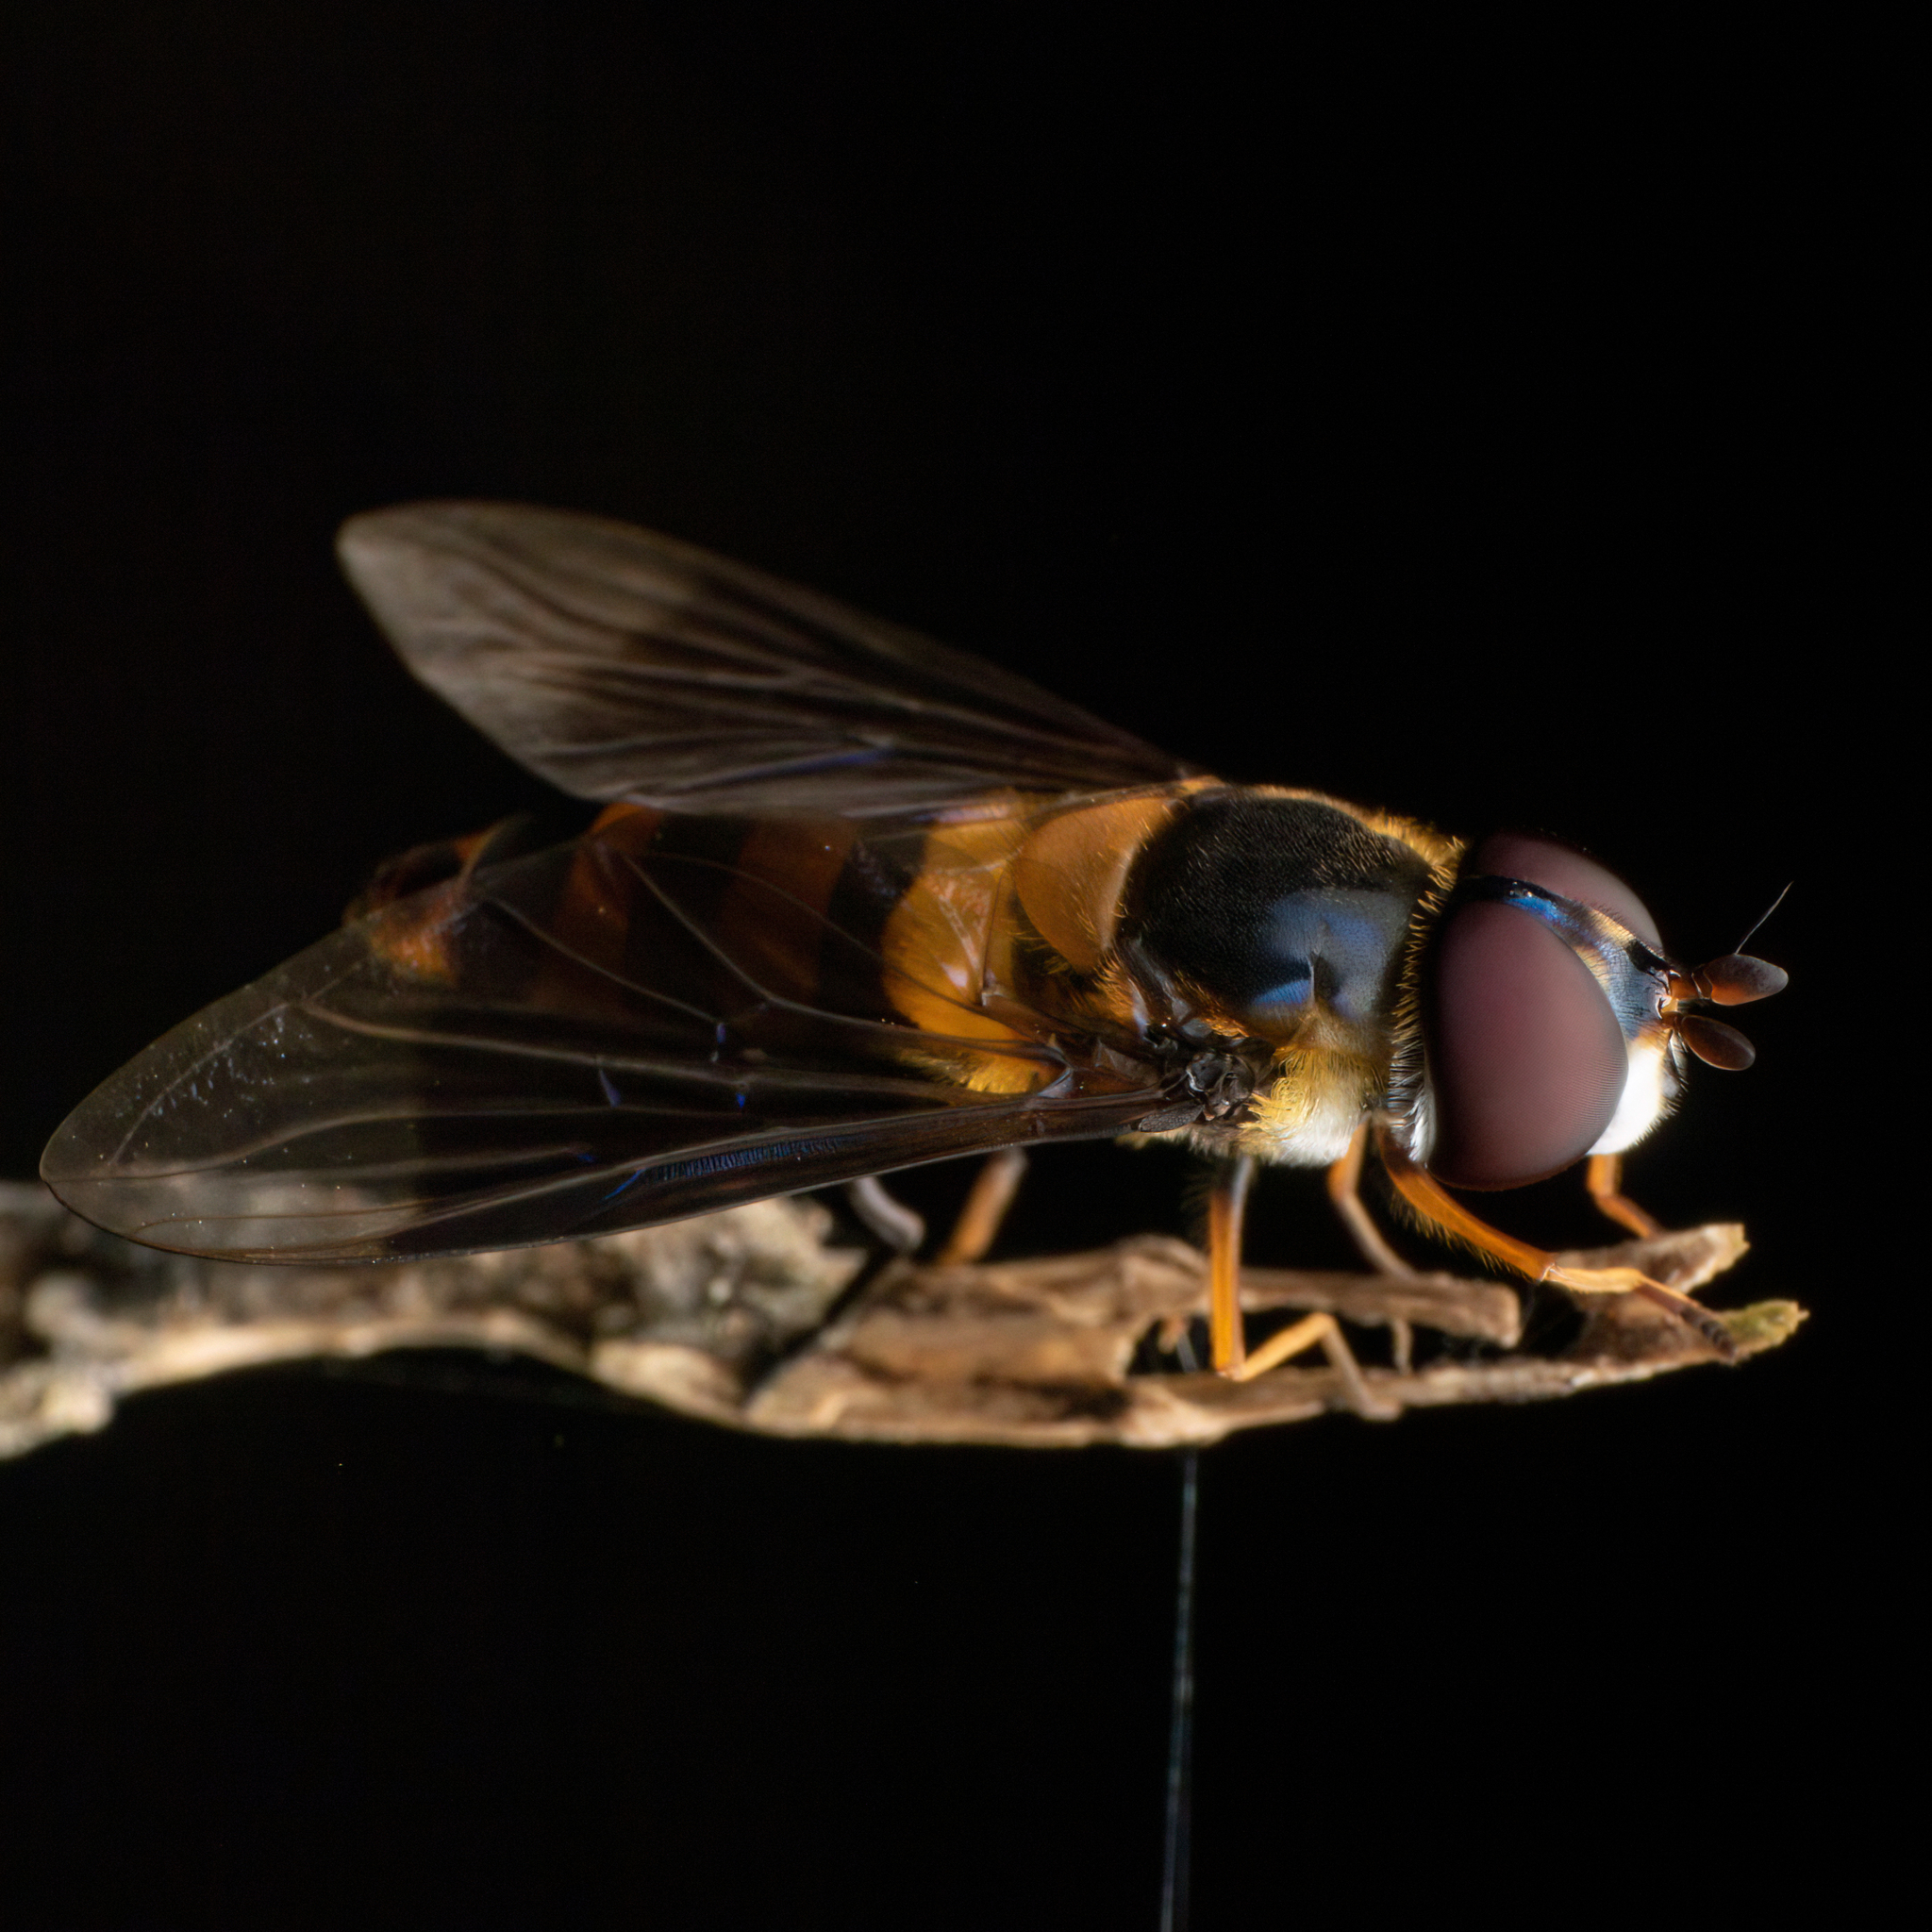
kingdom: Animalia
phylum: Arthropoda
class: Insecta
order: Diptera
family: Syrphidae
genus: Dideopsis
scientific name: Dideopsis aegrota
